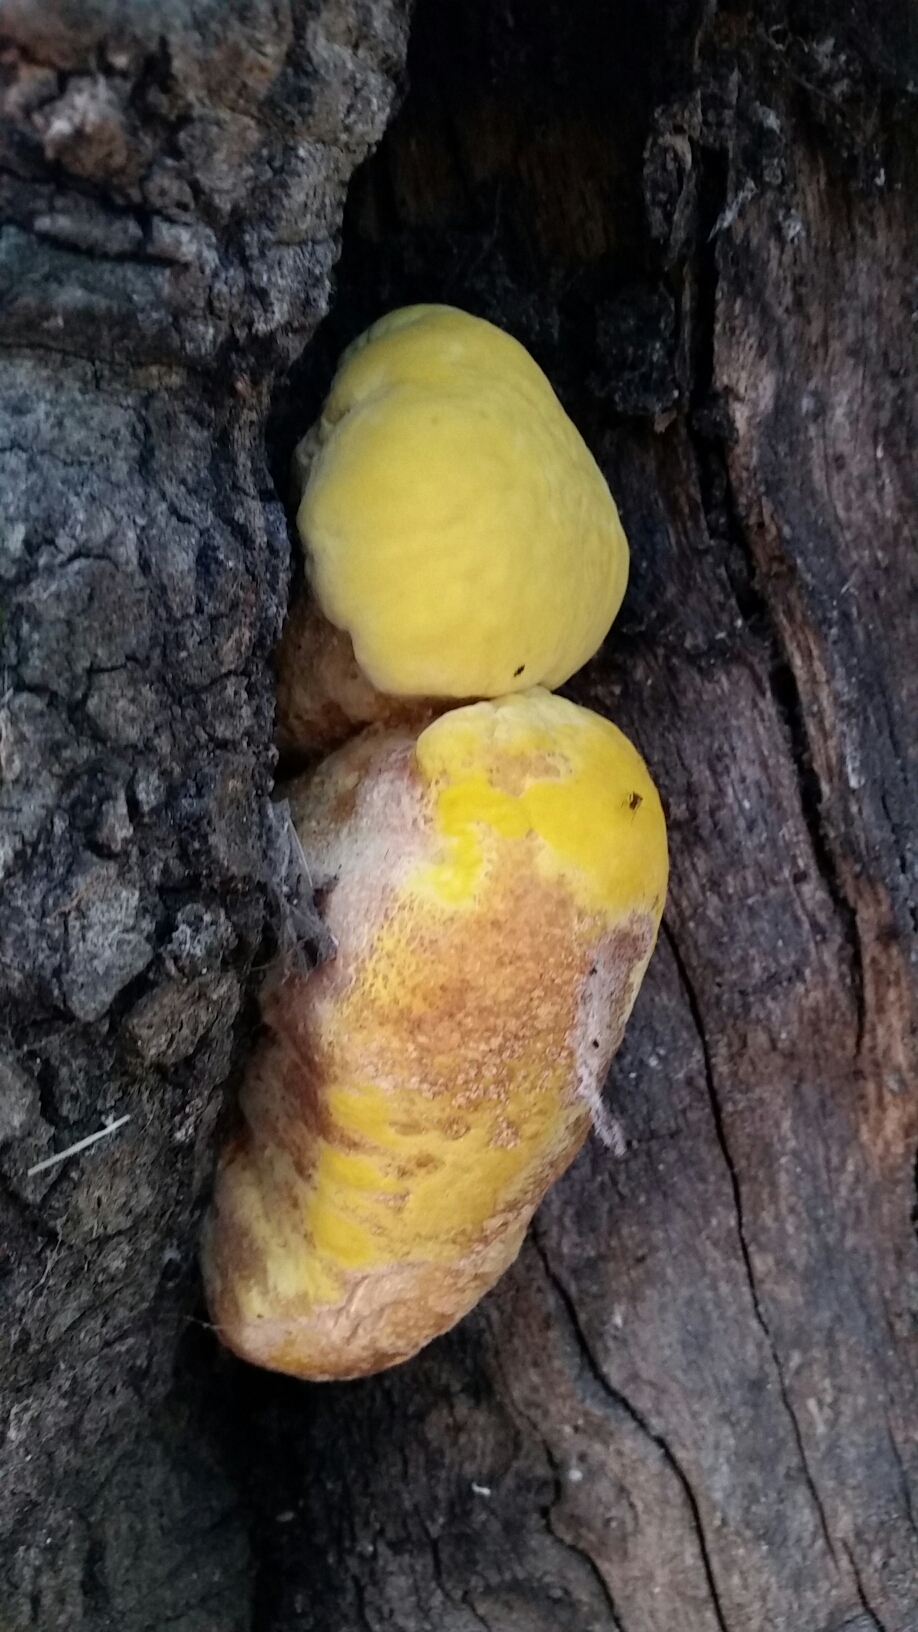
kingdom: Fungi
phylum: Basidiomycota
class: Agaricomycetes
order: Polyporales
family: Laetiporaceae
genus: Laetiporus
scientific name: Laetiporus gilbertsonii
